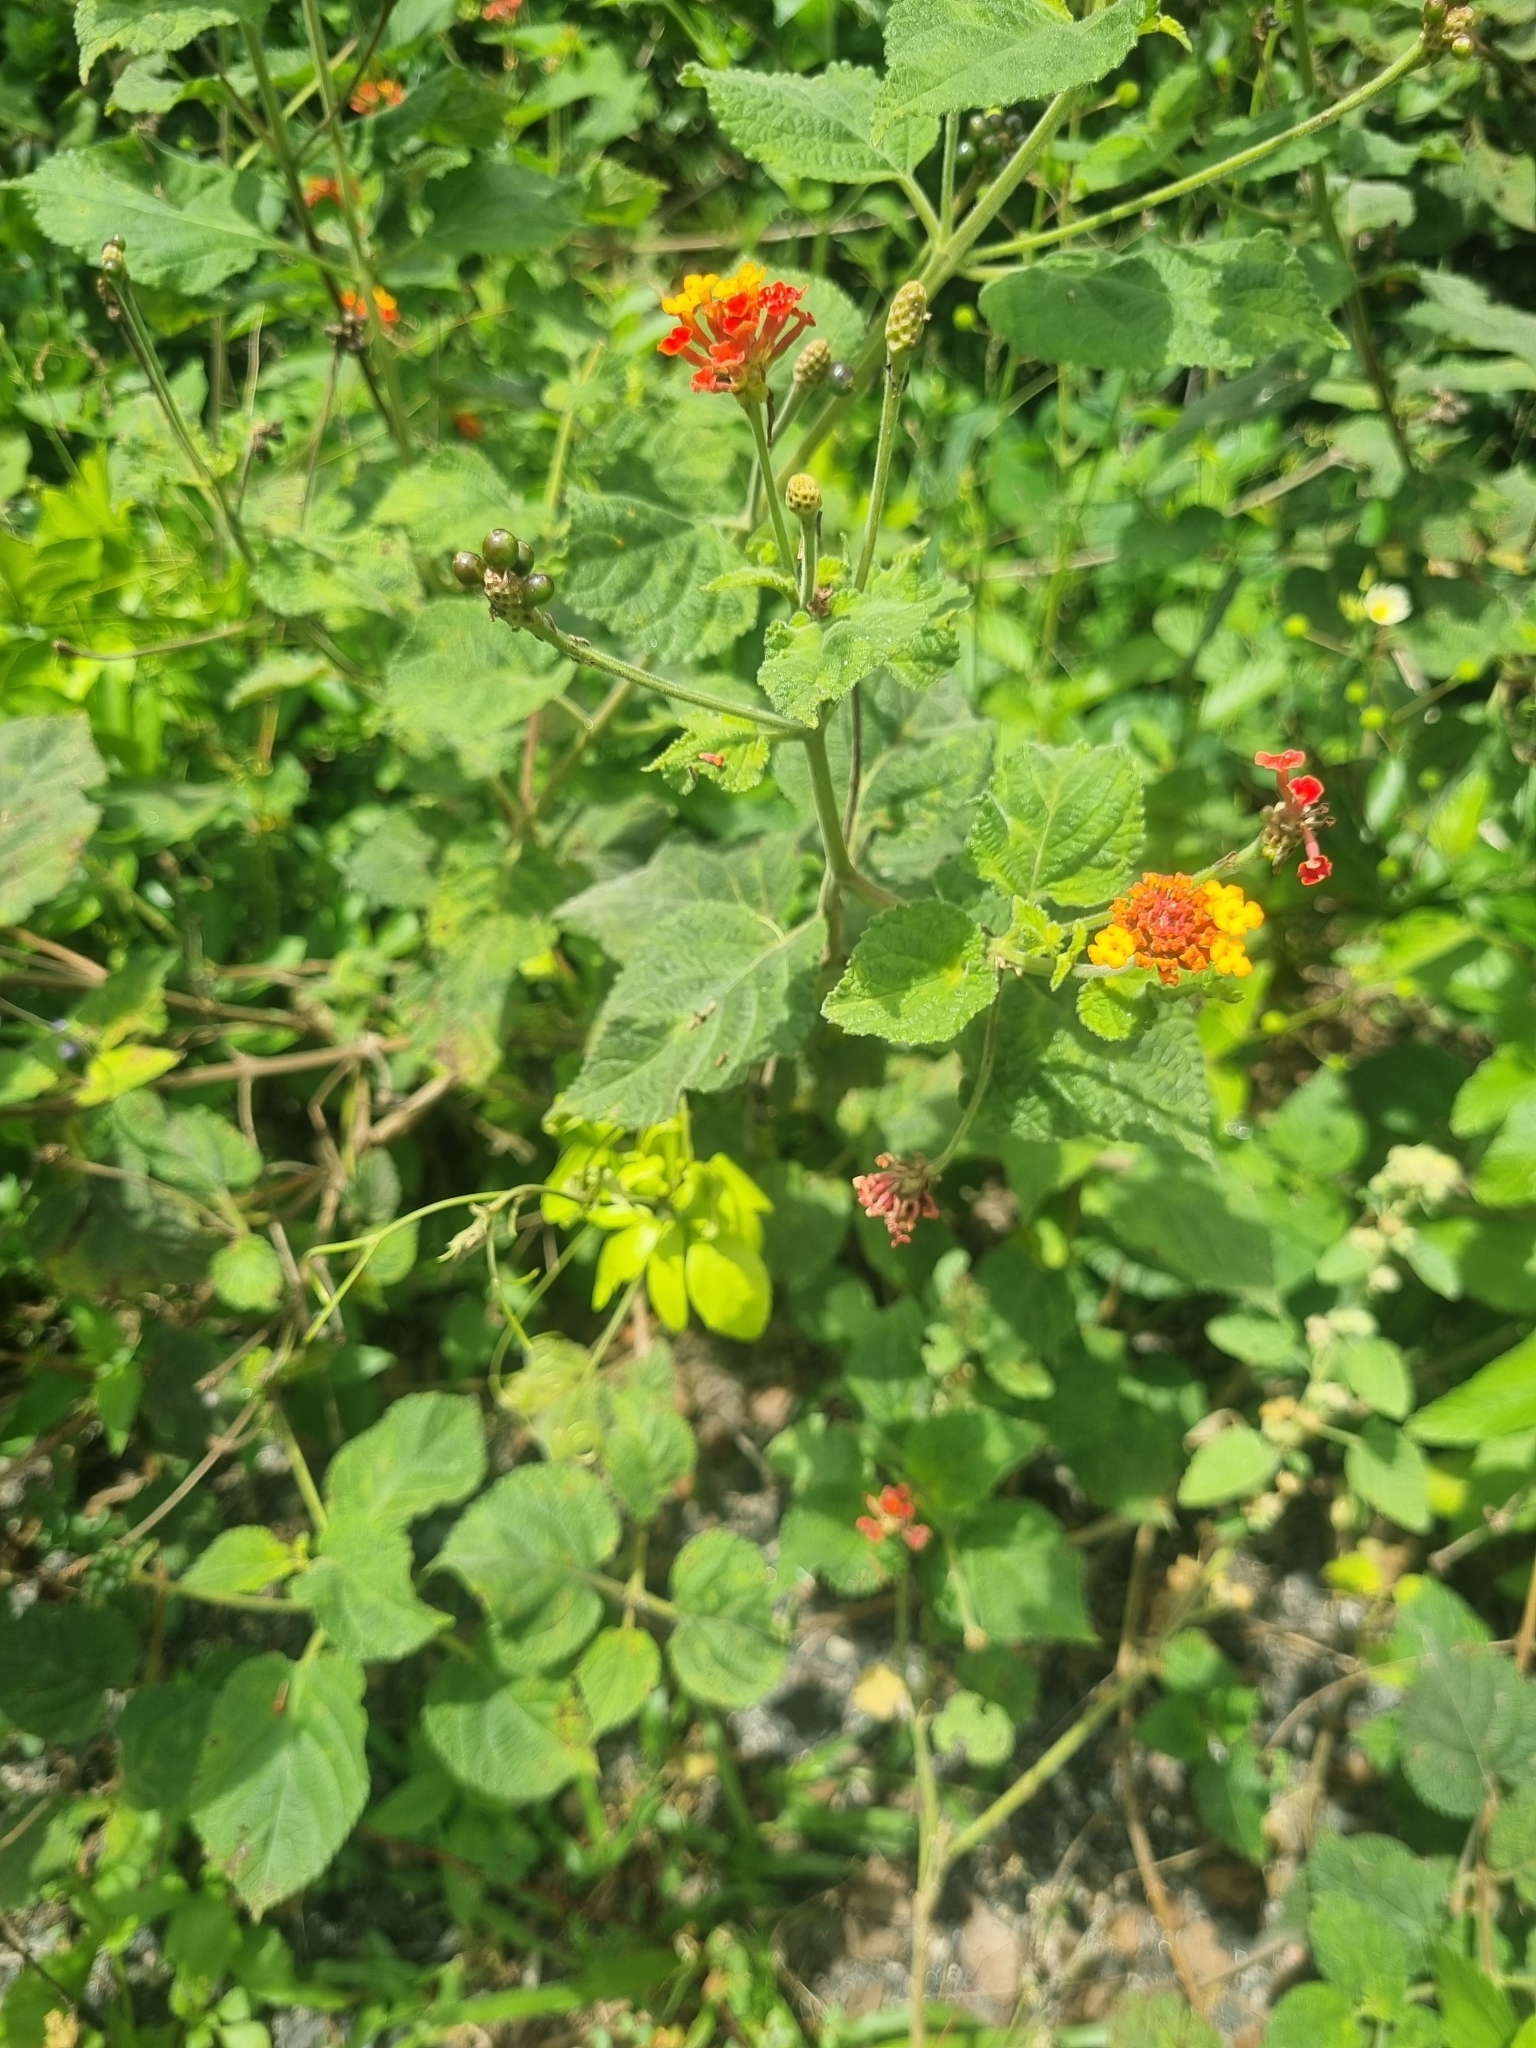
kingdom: Plantae
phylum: Tracheophyta
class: Magnoliopsida
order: Lamiales
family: Verbenaceae
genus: Lantana
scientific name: Lantana camara
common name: Lantana
